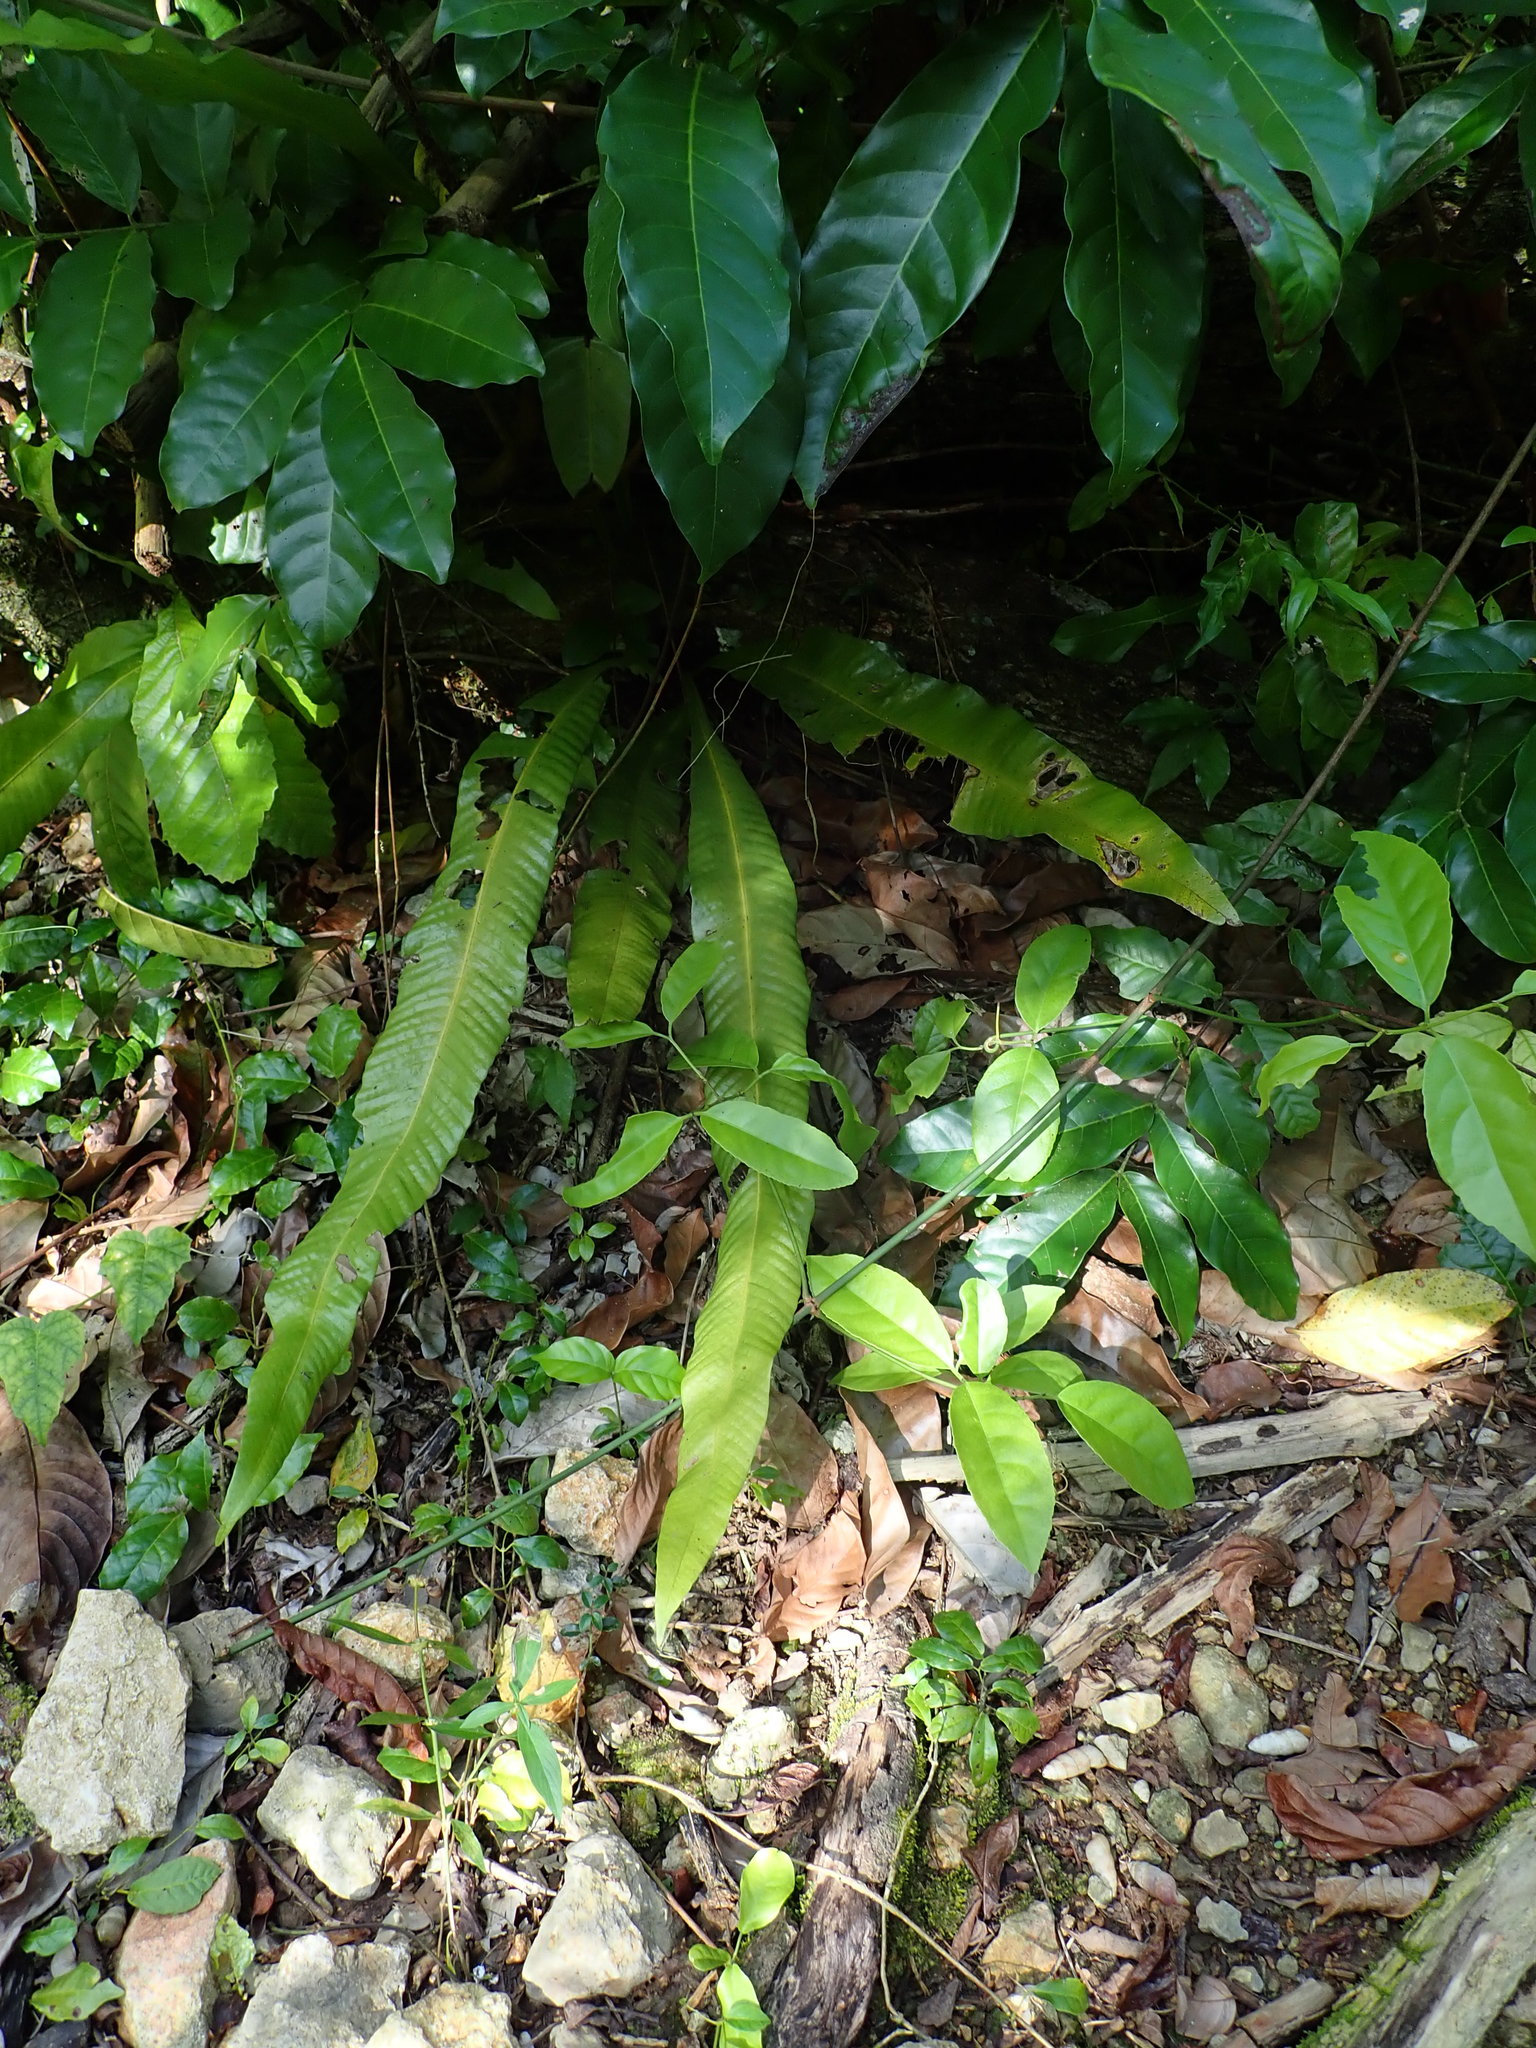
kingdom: Plantae
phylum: Tracheophyta
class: Polypodiopsida
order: Polypodiales
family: Polypodiaceae
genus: Campyloneurum
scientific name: Campyloneurum phyllitidis
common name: Cow-tongue fern
